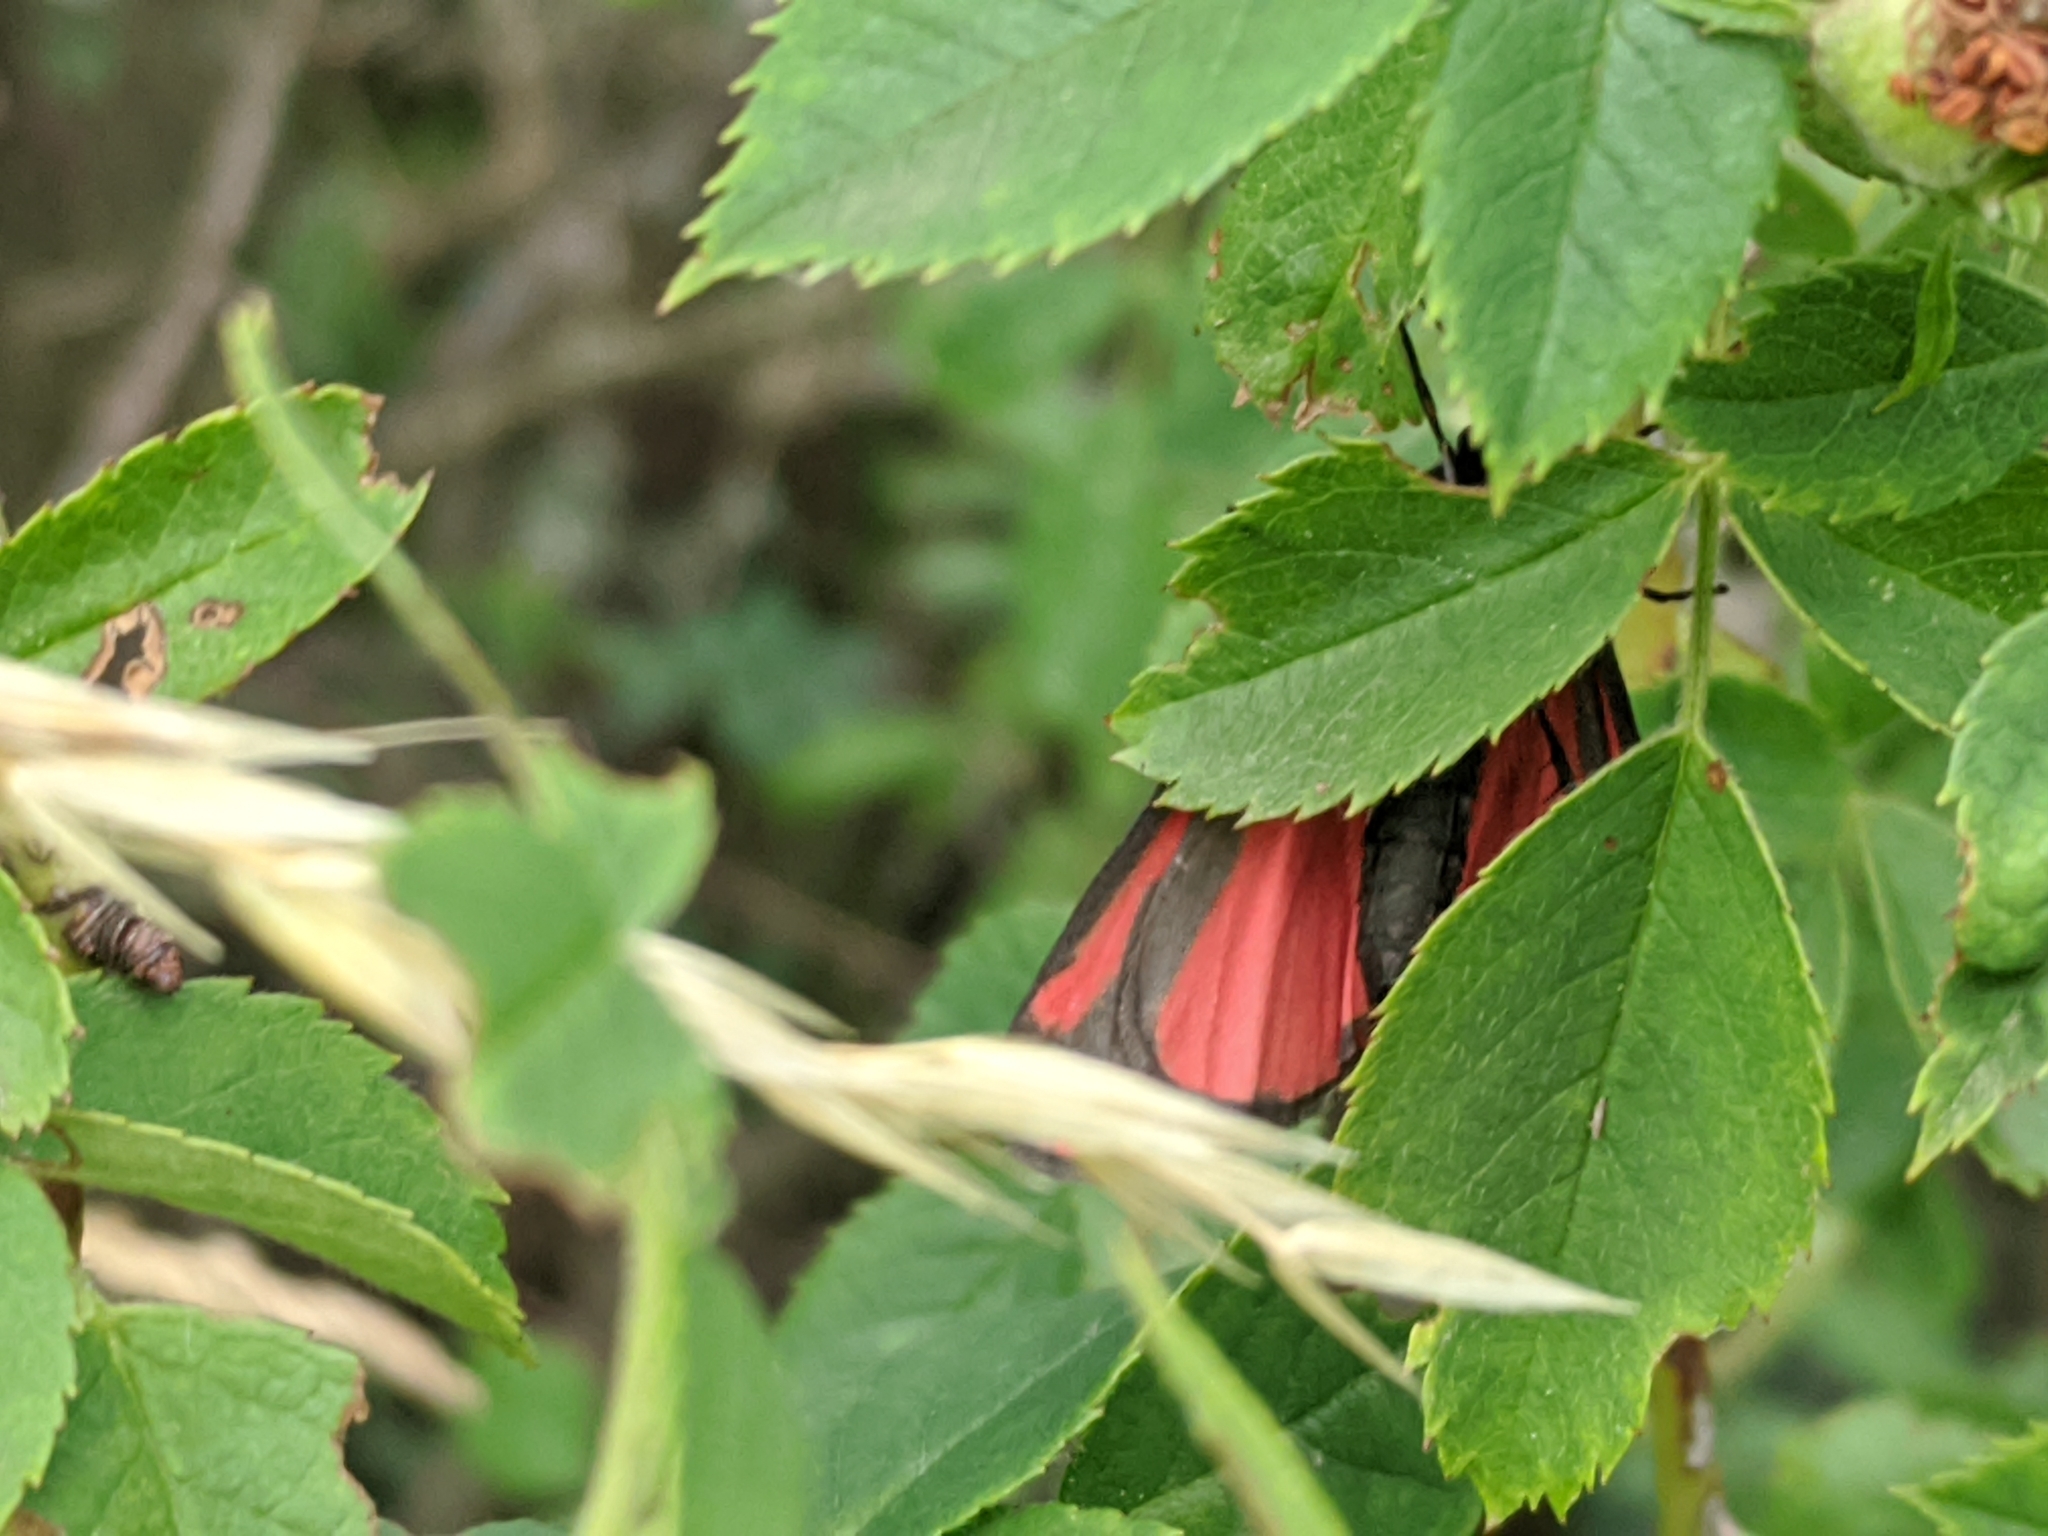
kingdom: Animalia
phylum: Arthropoda
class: Insecta
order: Lepidoptera
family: Erebidae
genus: Tyria
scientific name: Tyria jacobaeae
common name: Cinnabar
